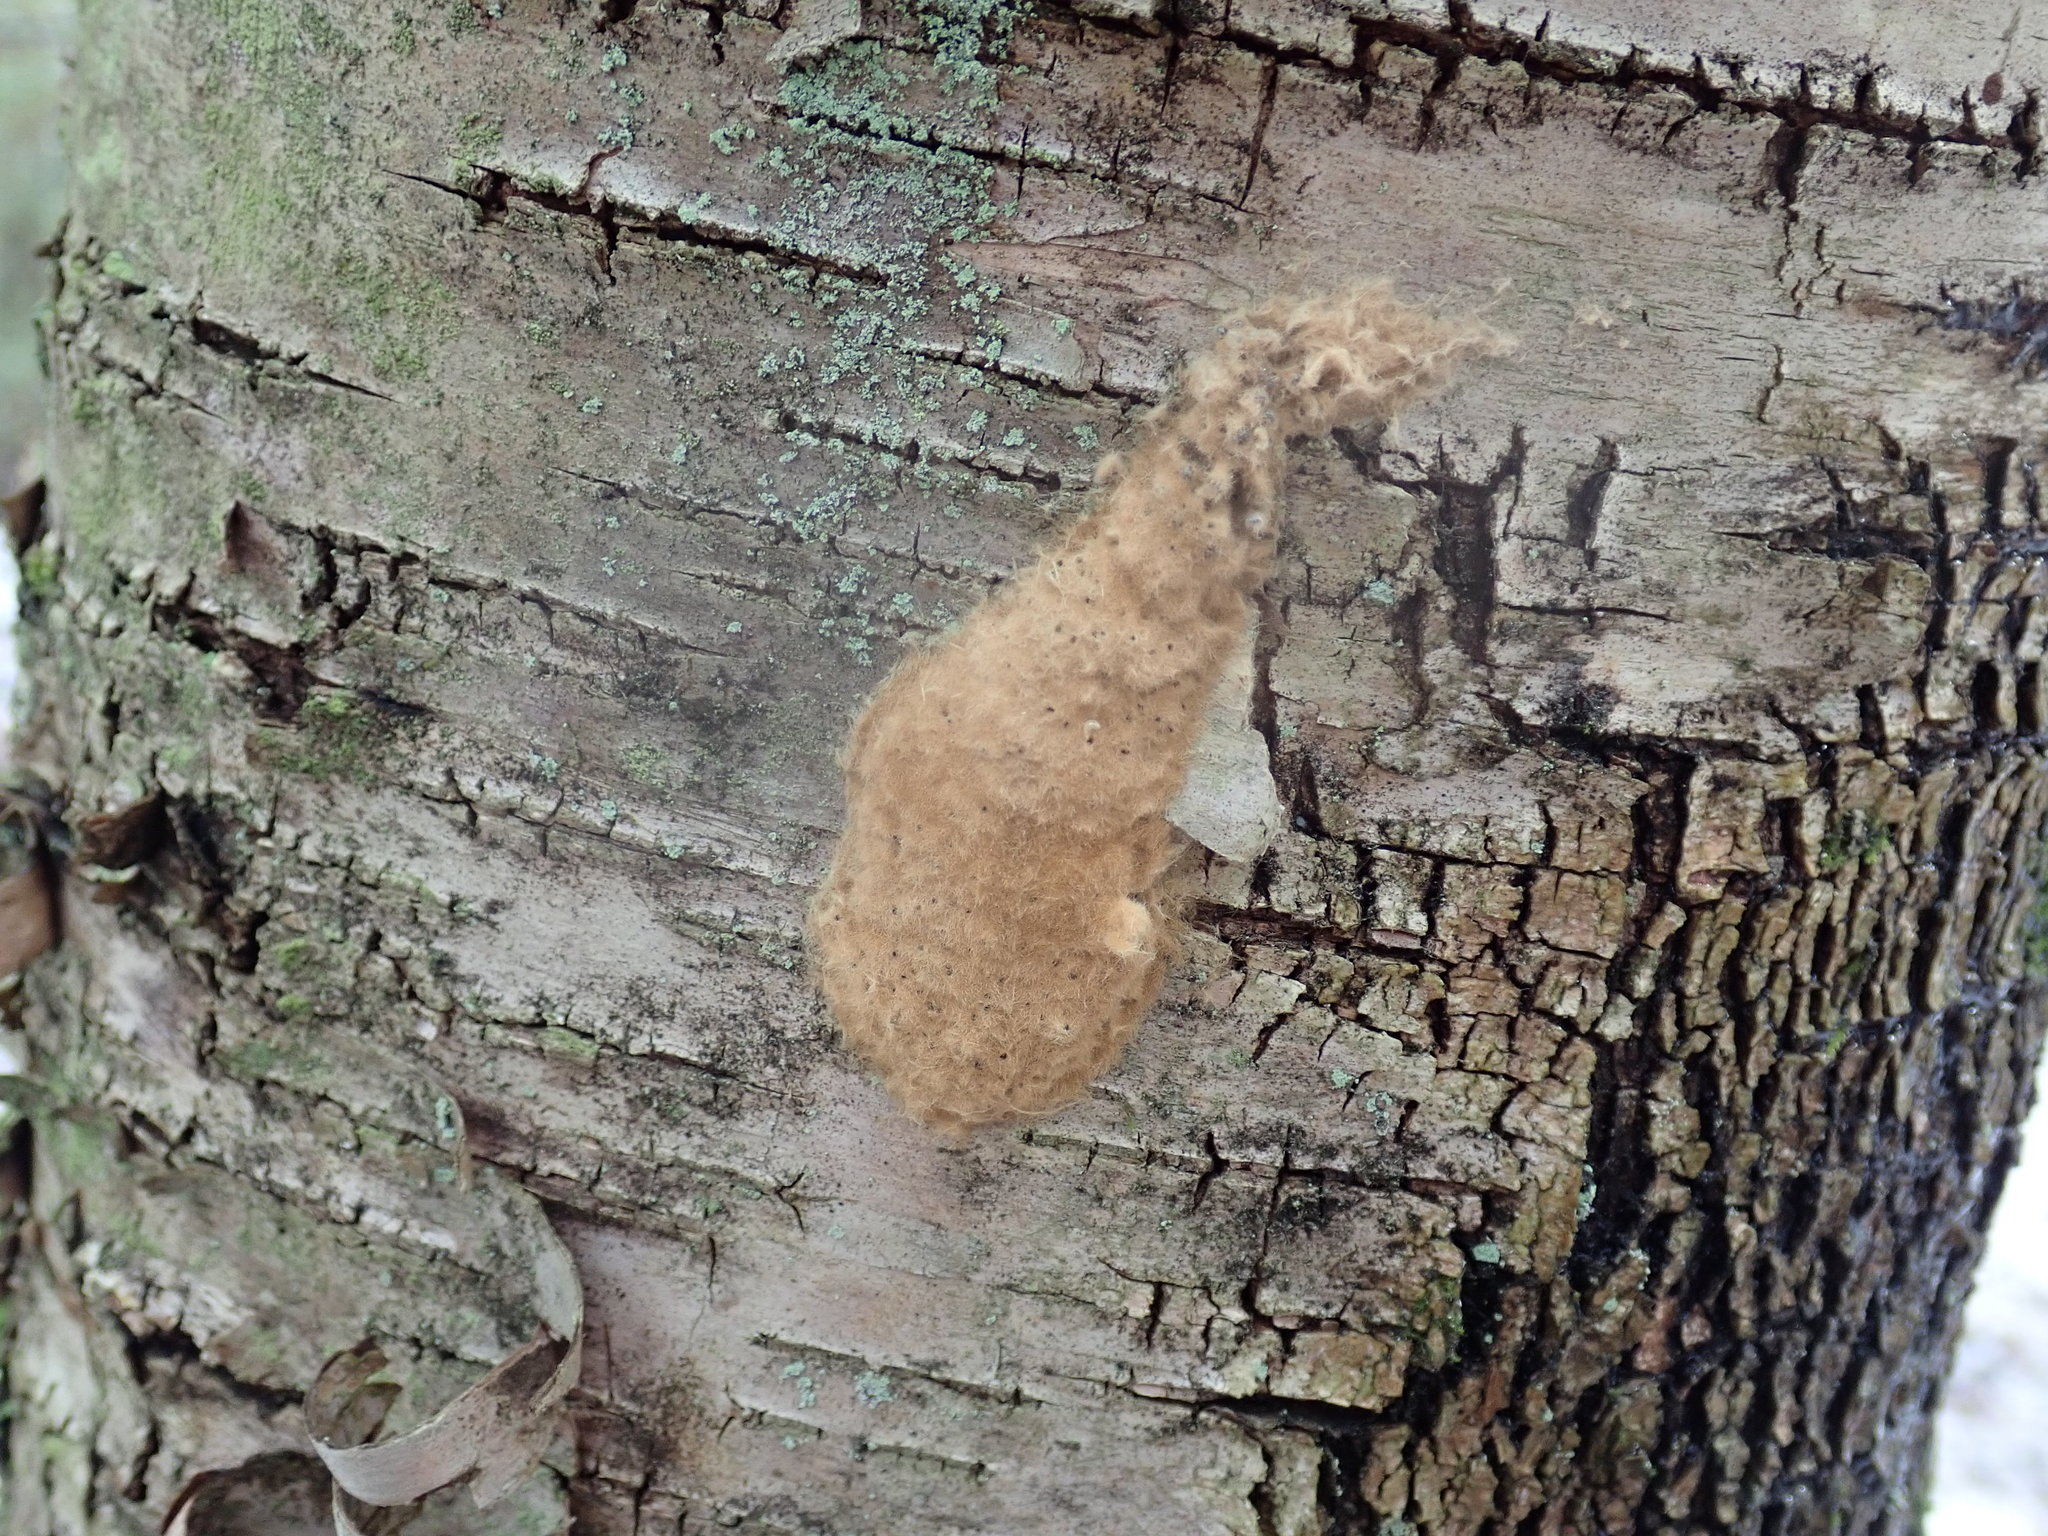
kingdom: Animalia
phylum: Arthropoda
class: Insecta
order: Lepidoptera
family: Erebidae
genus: Lymantria
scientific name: Lymantria dispar
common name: Gypsy moth
